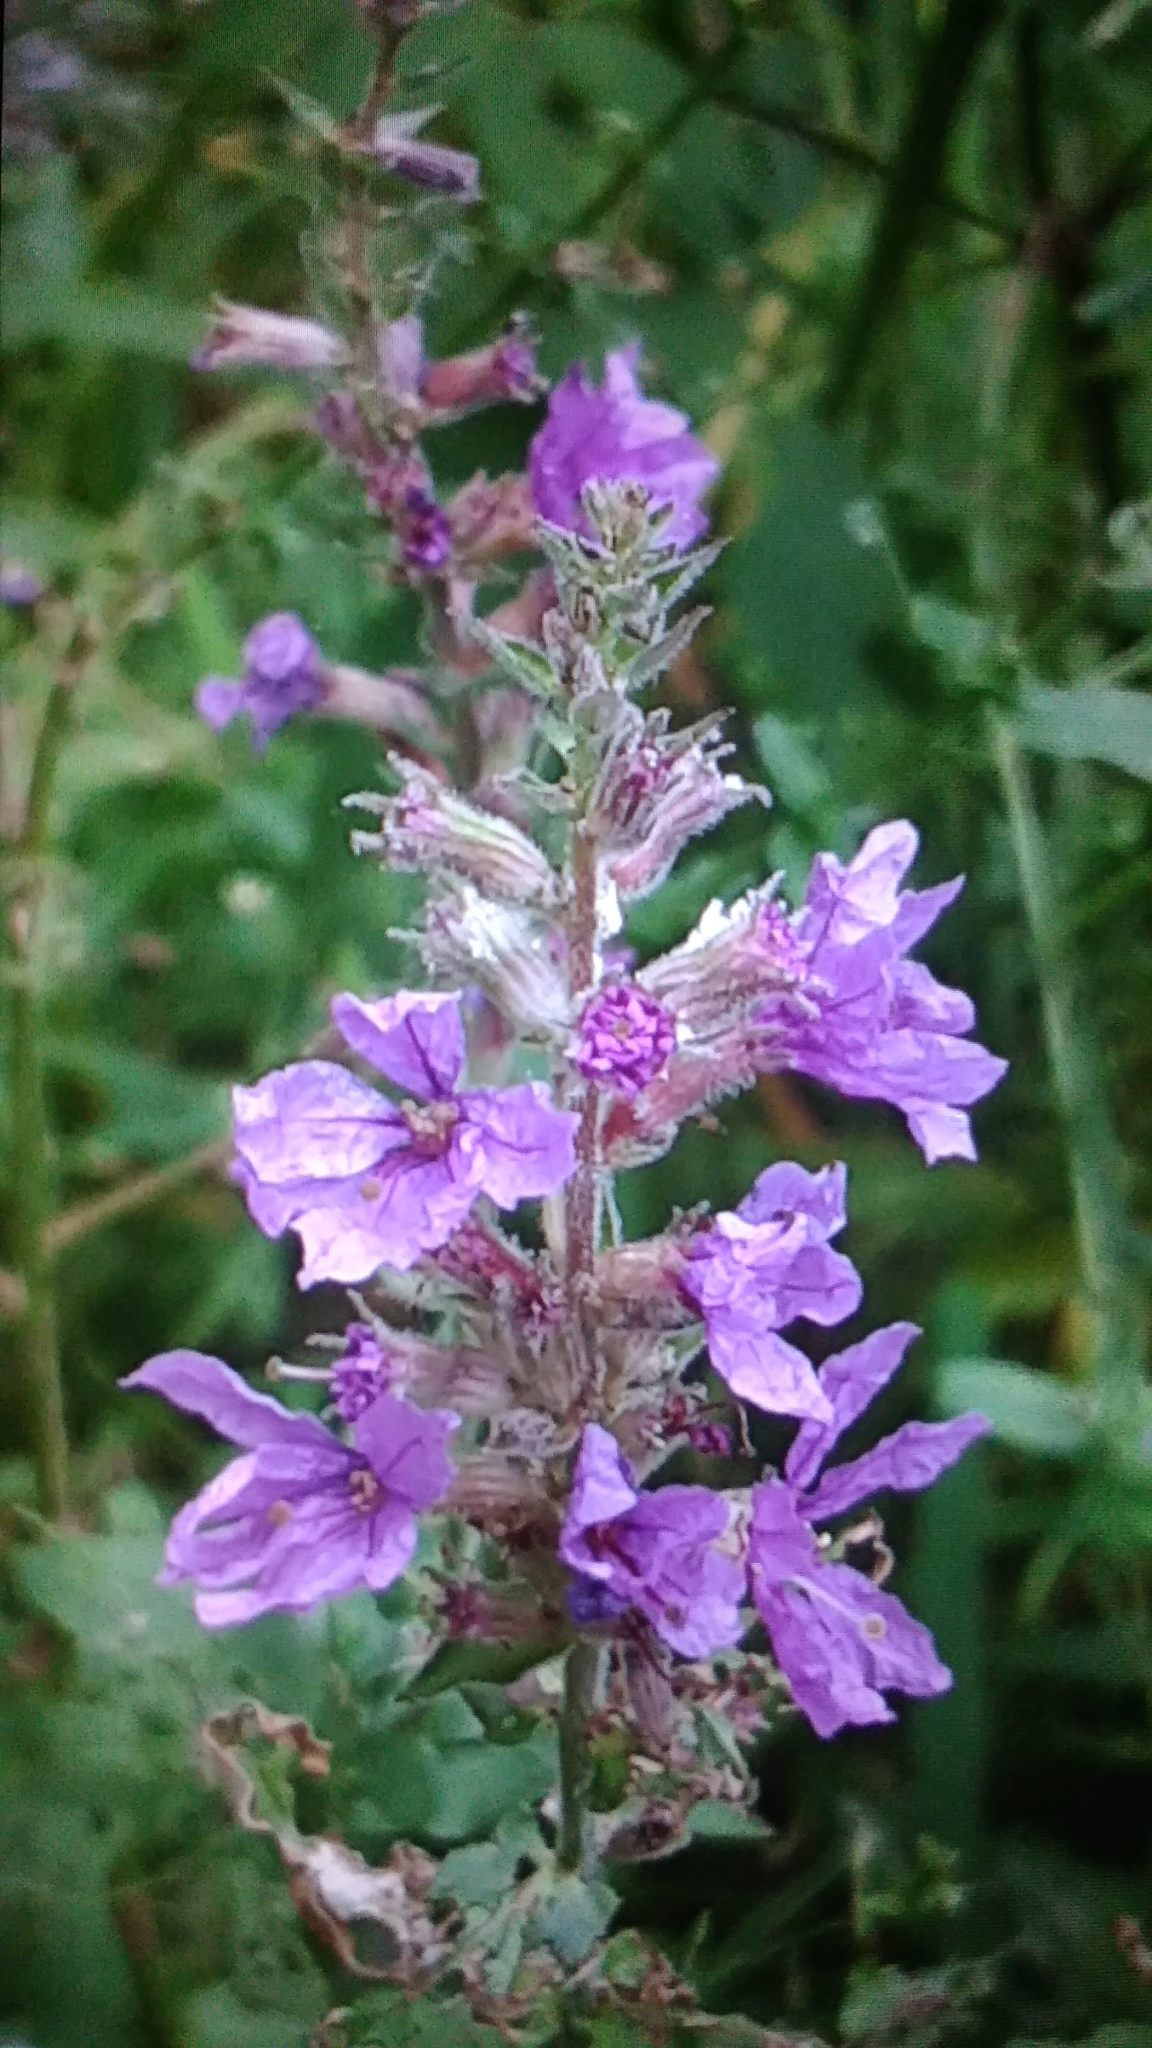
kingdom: Plantae
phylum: Tracheophyta
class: Magnoliopsida
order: Myrtales
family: Lythraceae
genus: Lythrum
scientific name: Lythrum salicaria
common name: Purple loosestrife
